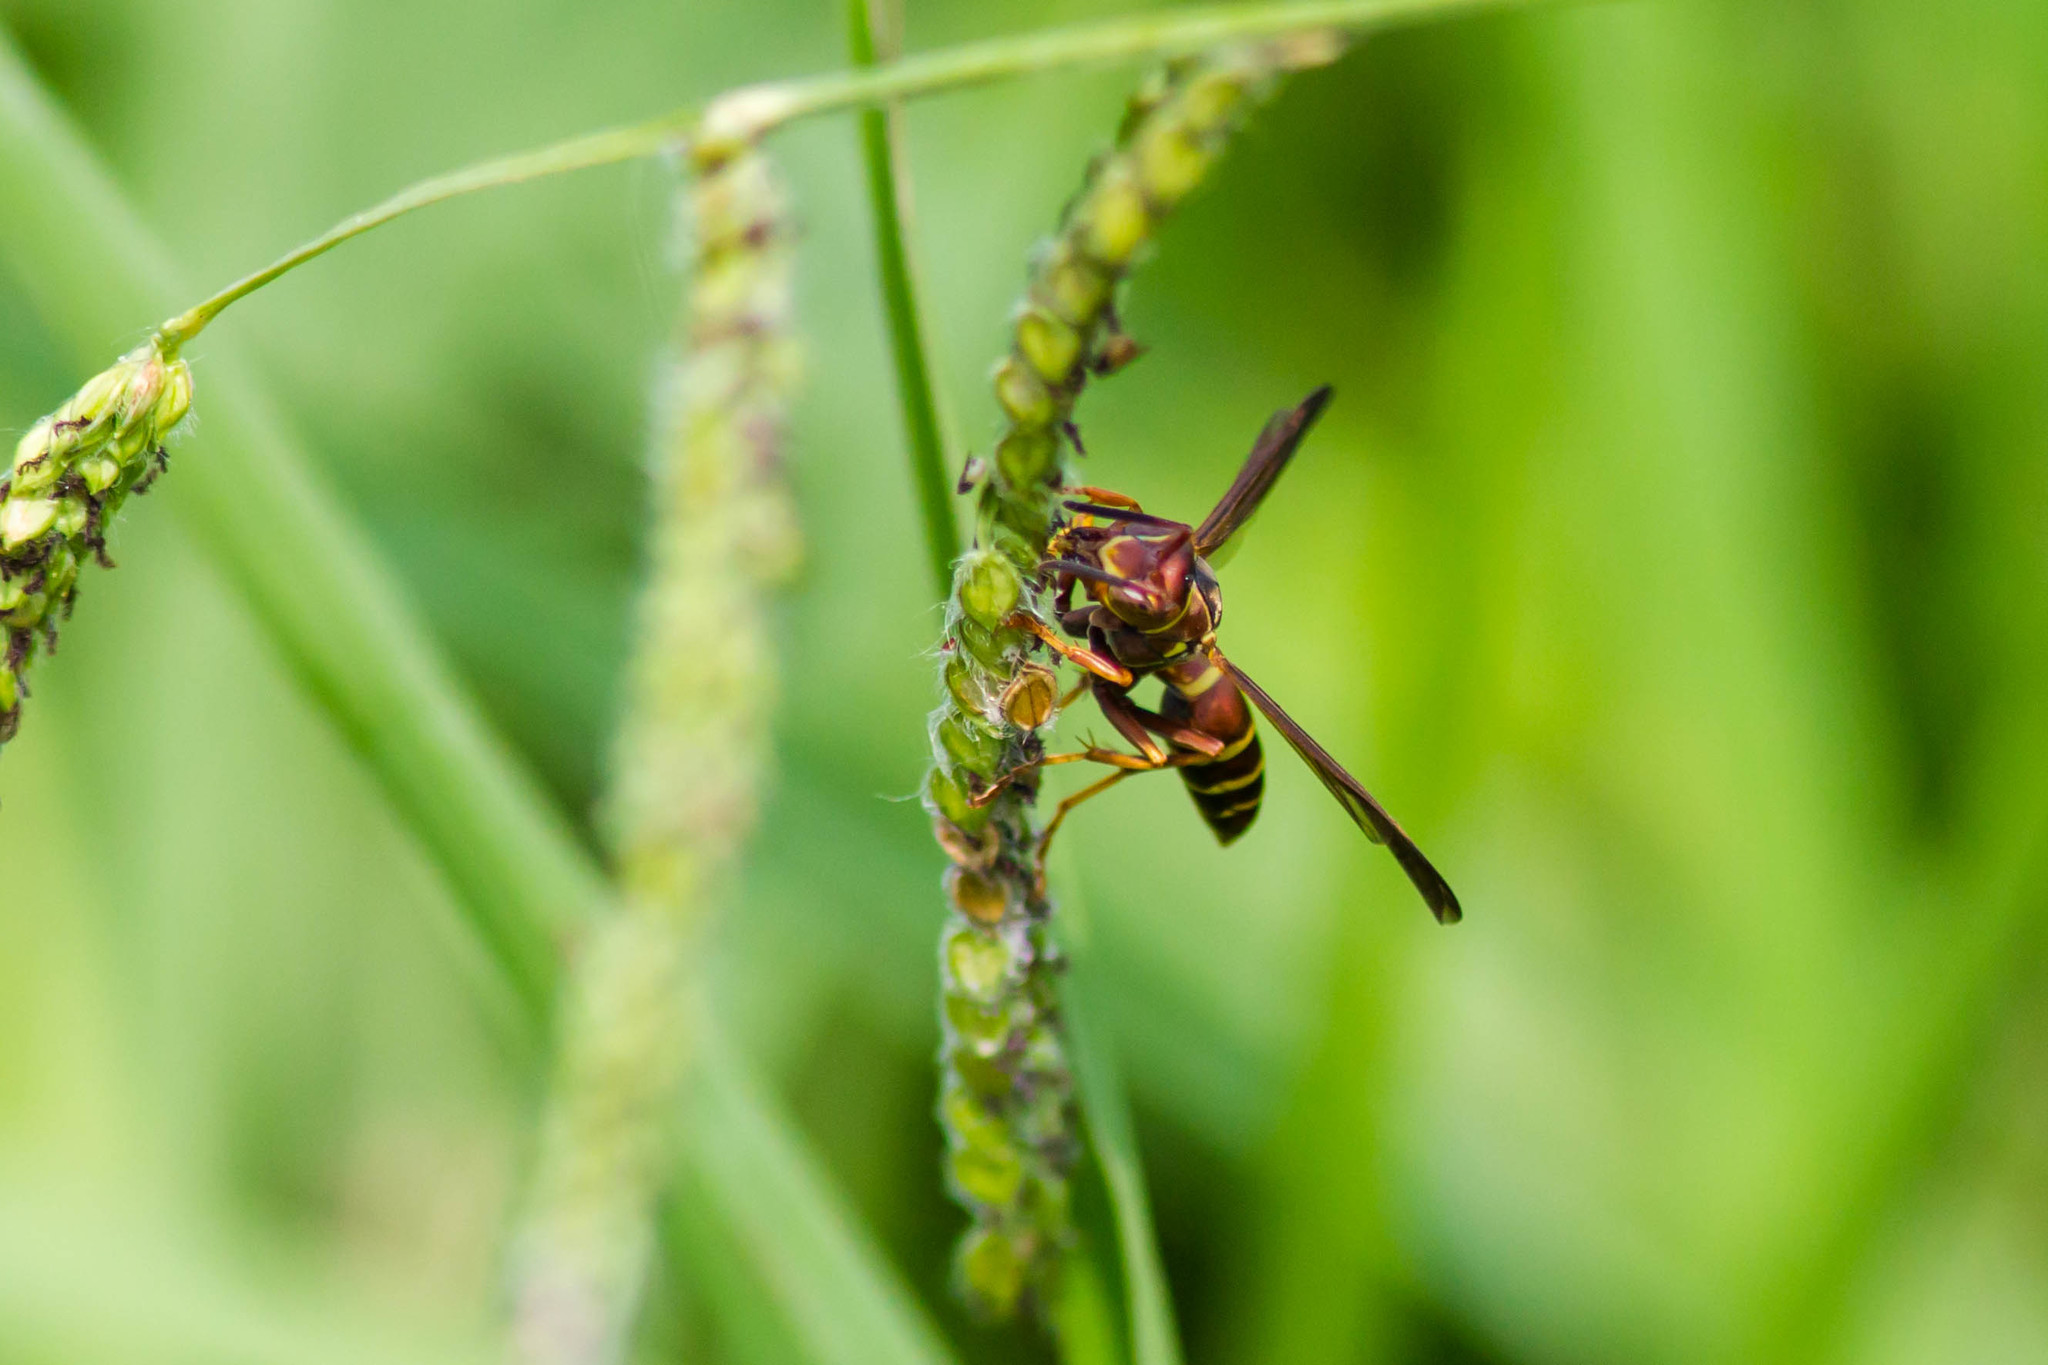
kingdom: Animalia
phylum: Arthropoda
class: Insecta
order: Hymenoptera
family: Eumenidae
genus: Polistes
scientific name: Polistes dorsalis
